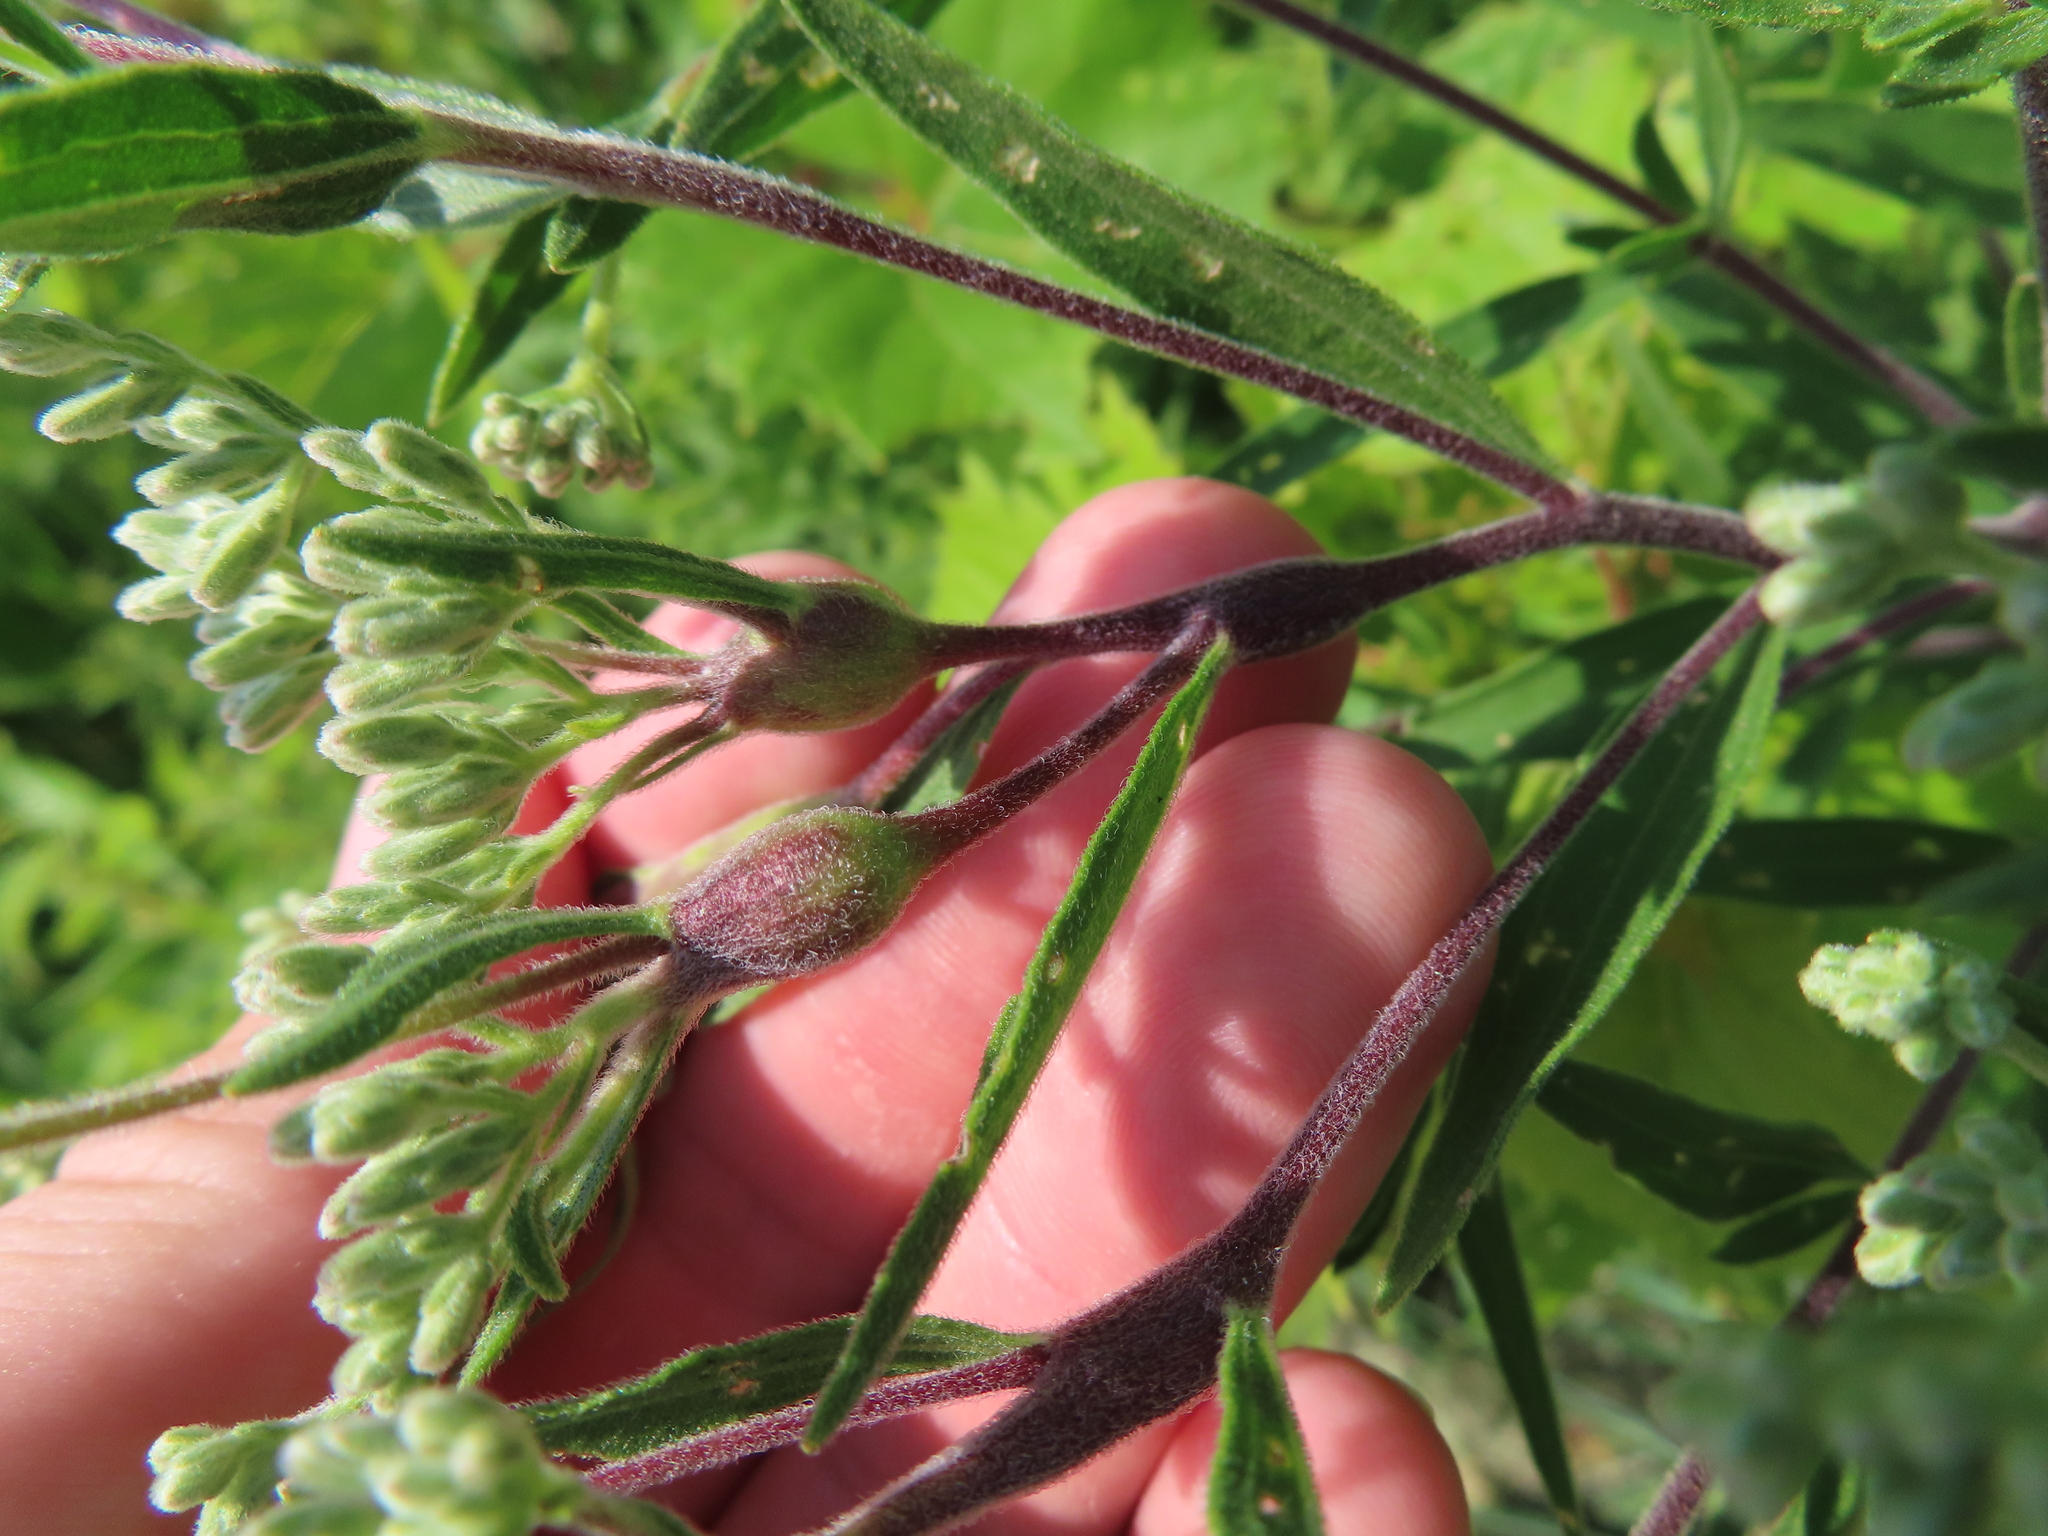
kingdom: Animalia
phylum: Arthropoda
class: Insecta
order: Diptera
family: Cecidomyiidae
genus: Neolasioptera
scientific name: Neolasioptera perfoliata
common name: Boneset stem midge
